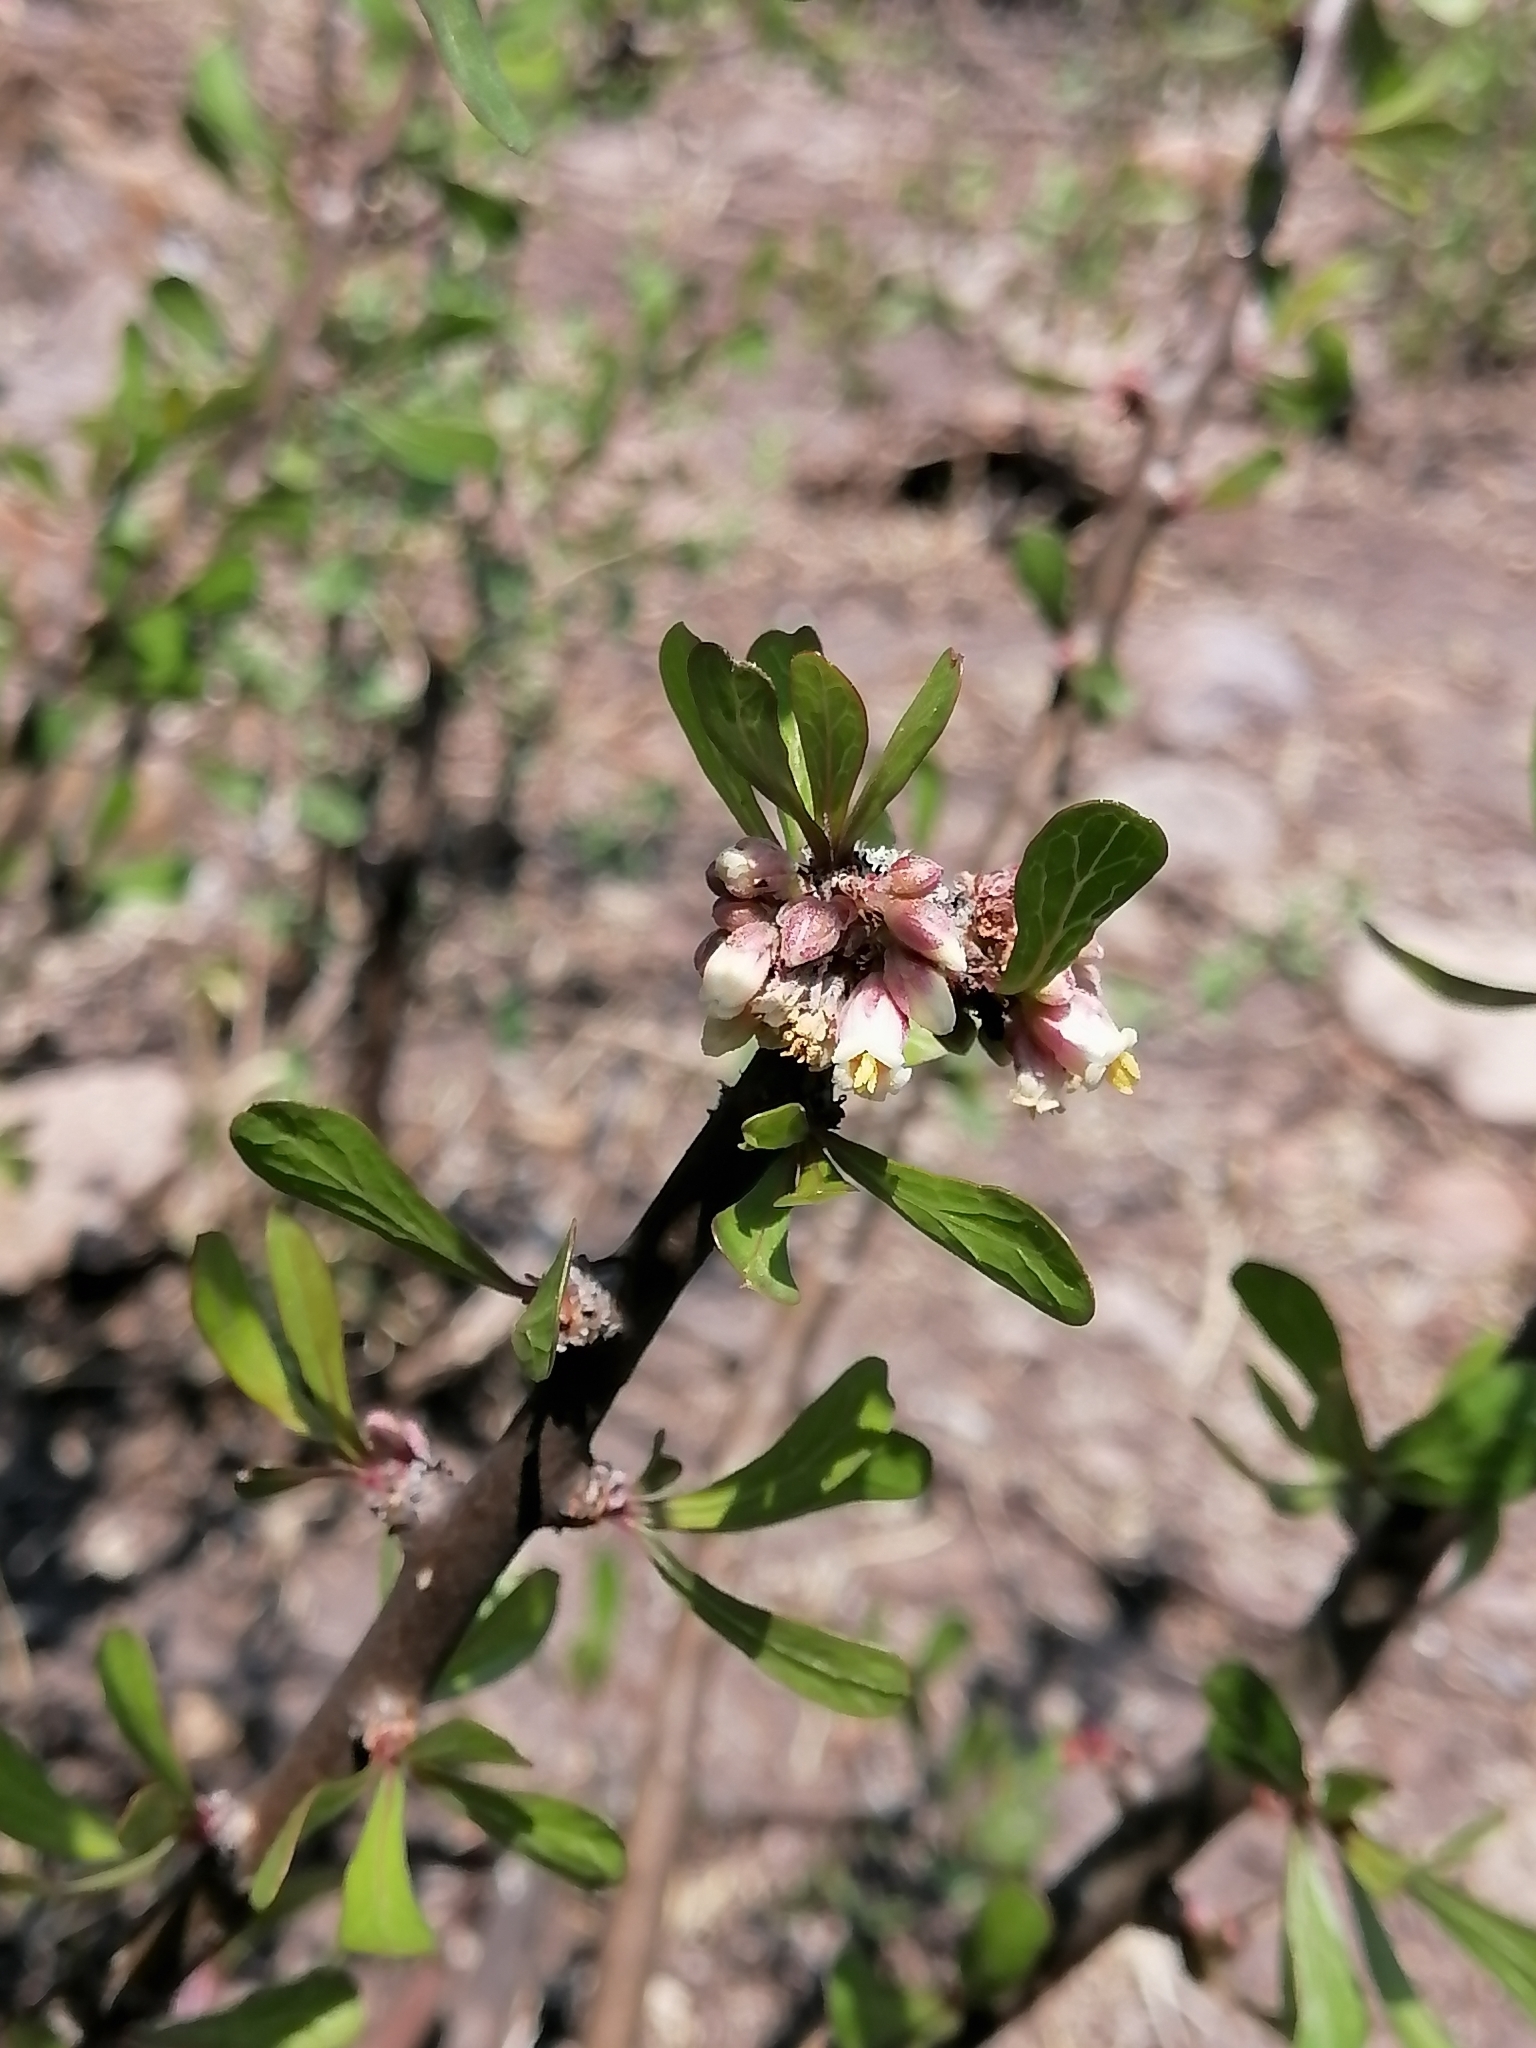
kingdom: Plantae
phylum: Tracheophyta
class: Magnoliopsida
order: Malpighiales
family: Euphorbiaceae
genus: Jatropha
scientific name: Jatropha dioica
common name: Leatherstem
